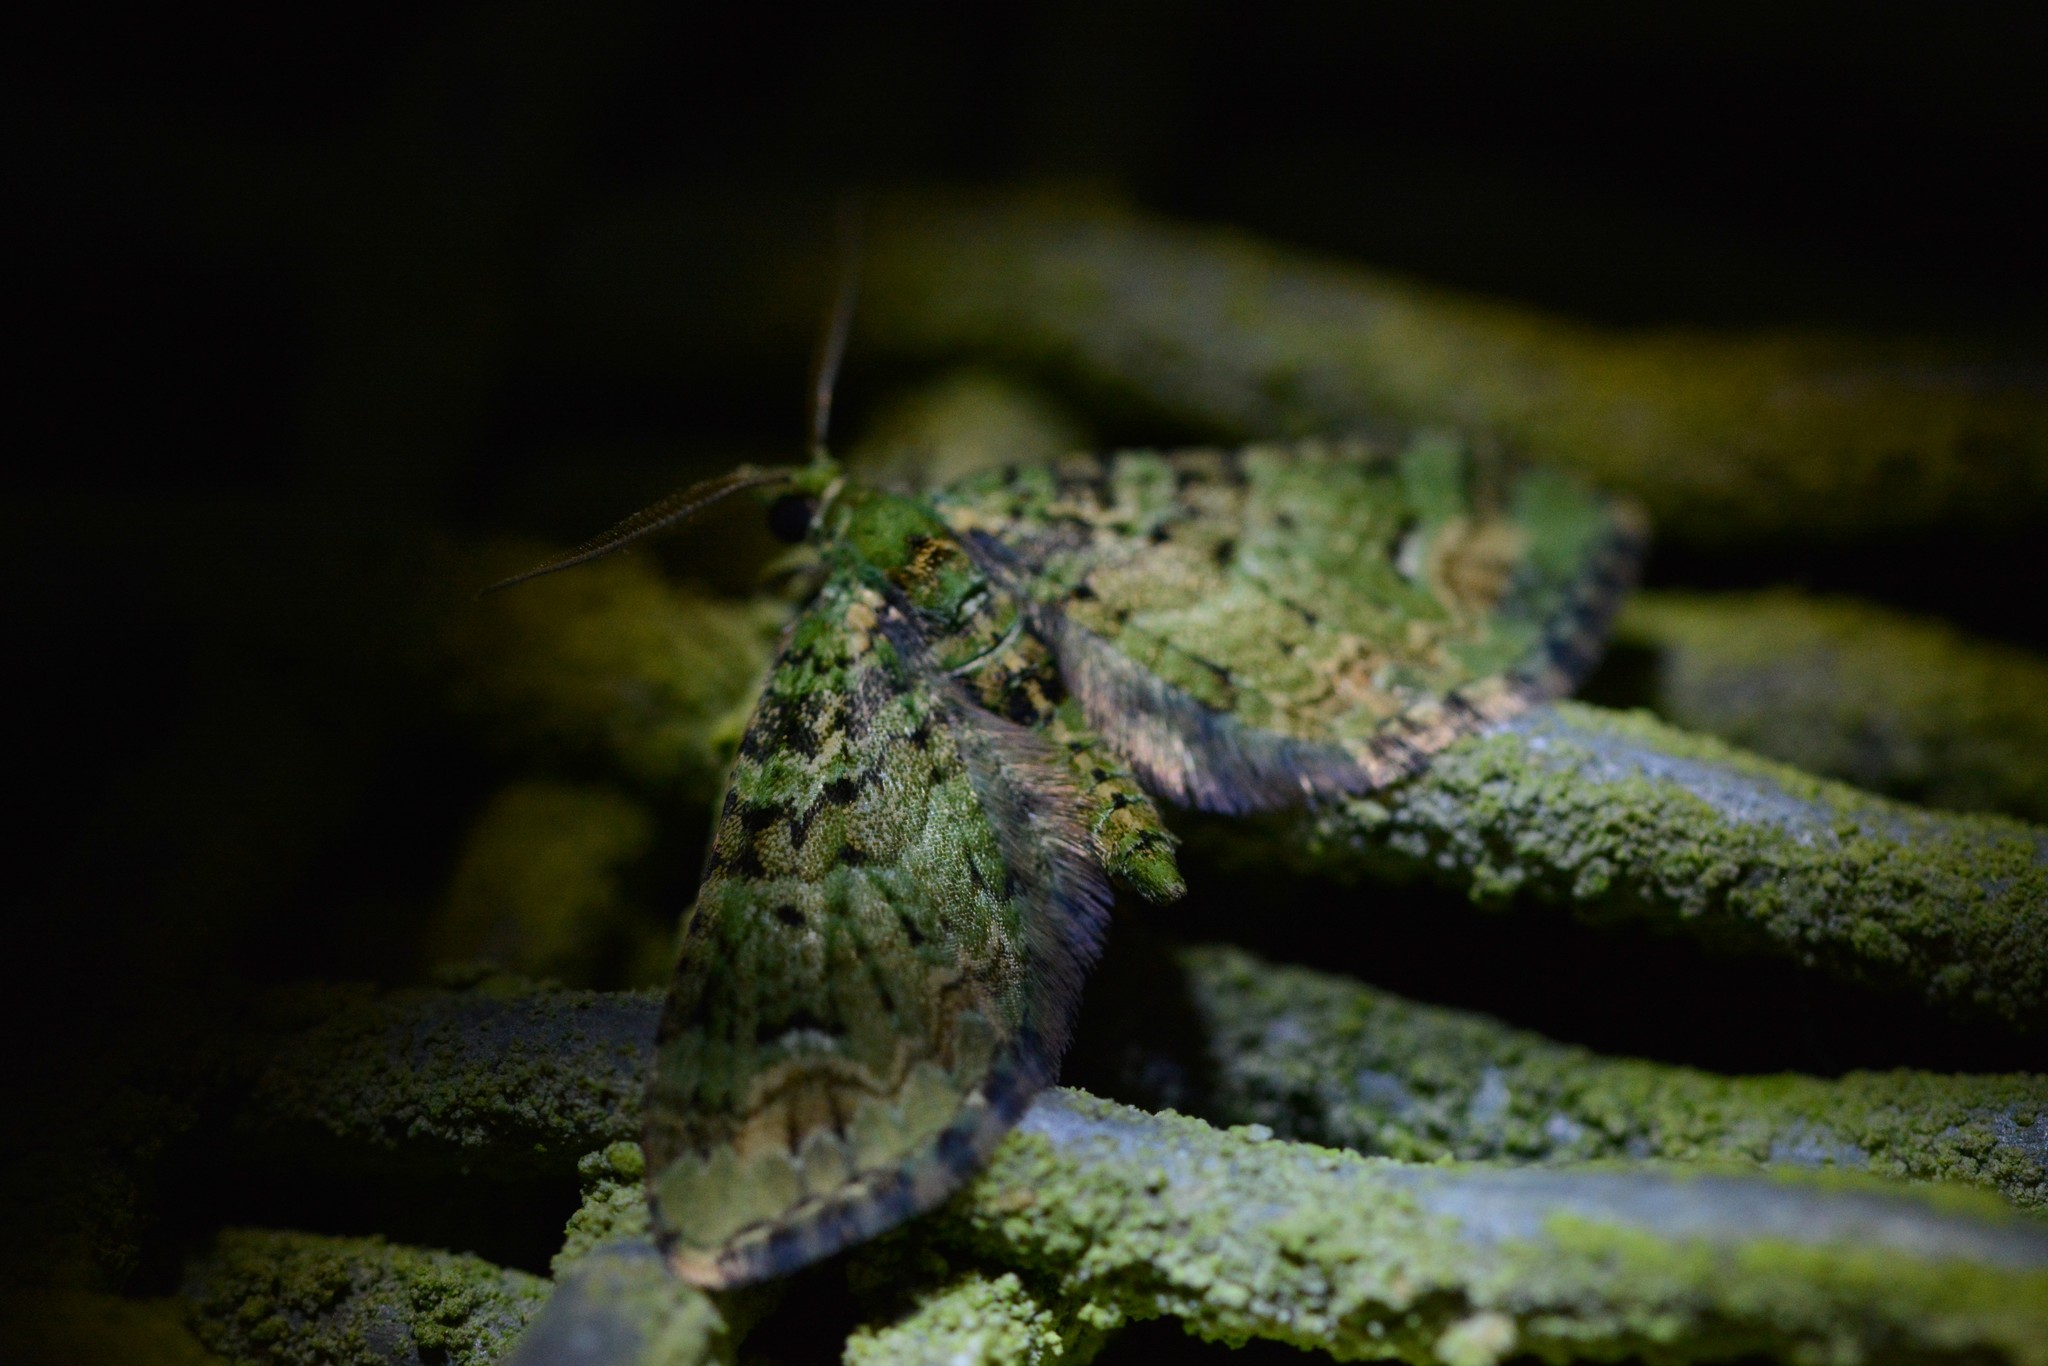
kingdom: Animalia
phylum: Arthropoda
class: Insecta
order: Lepidoptera
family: Geometridae
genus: Pasiphila
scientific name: Pasiphila bilineolata
